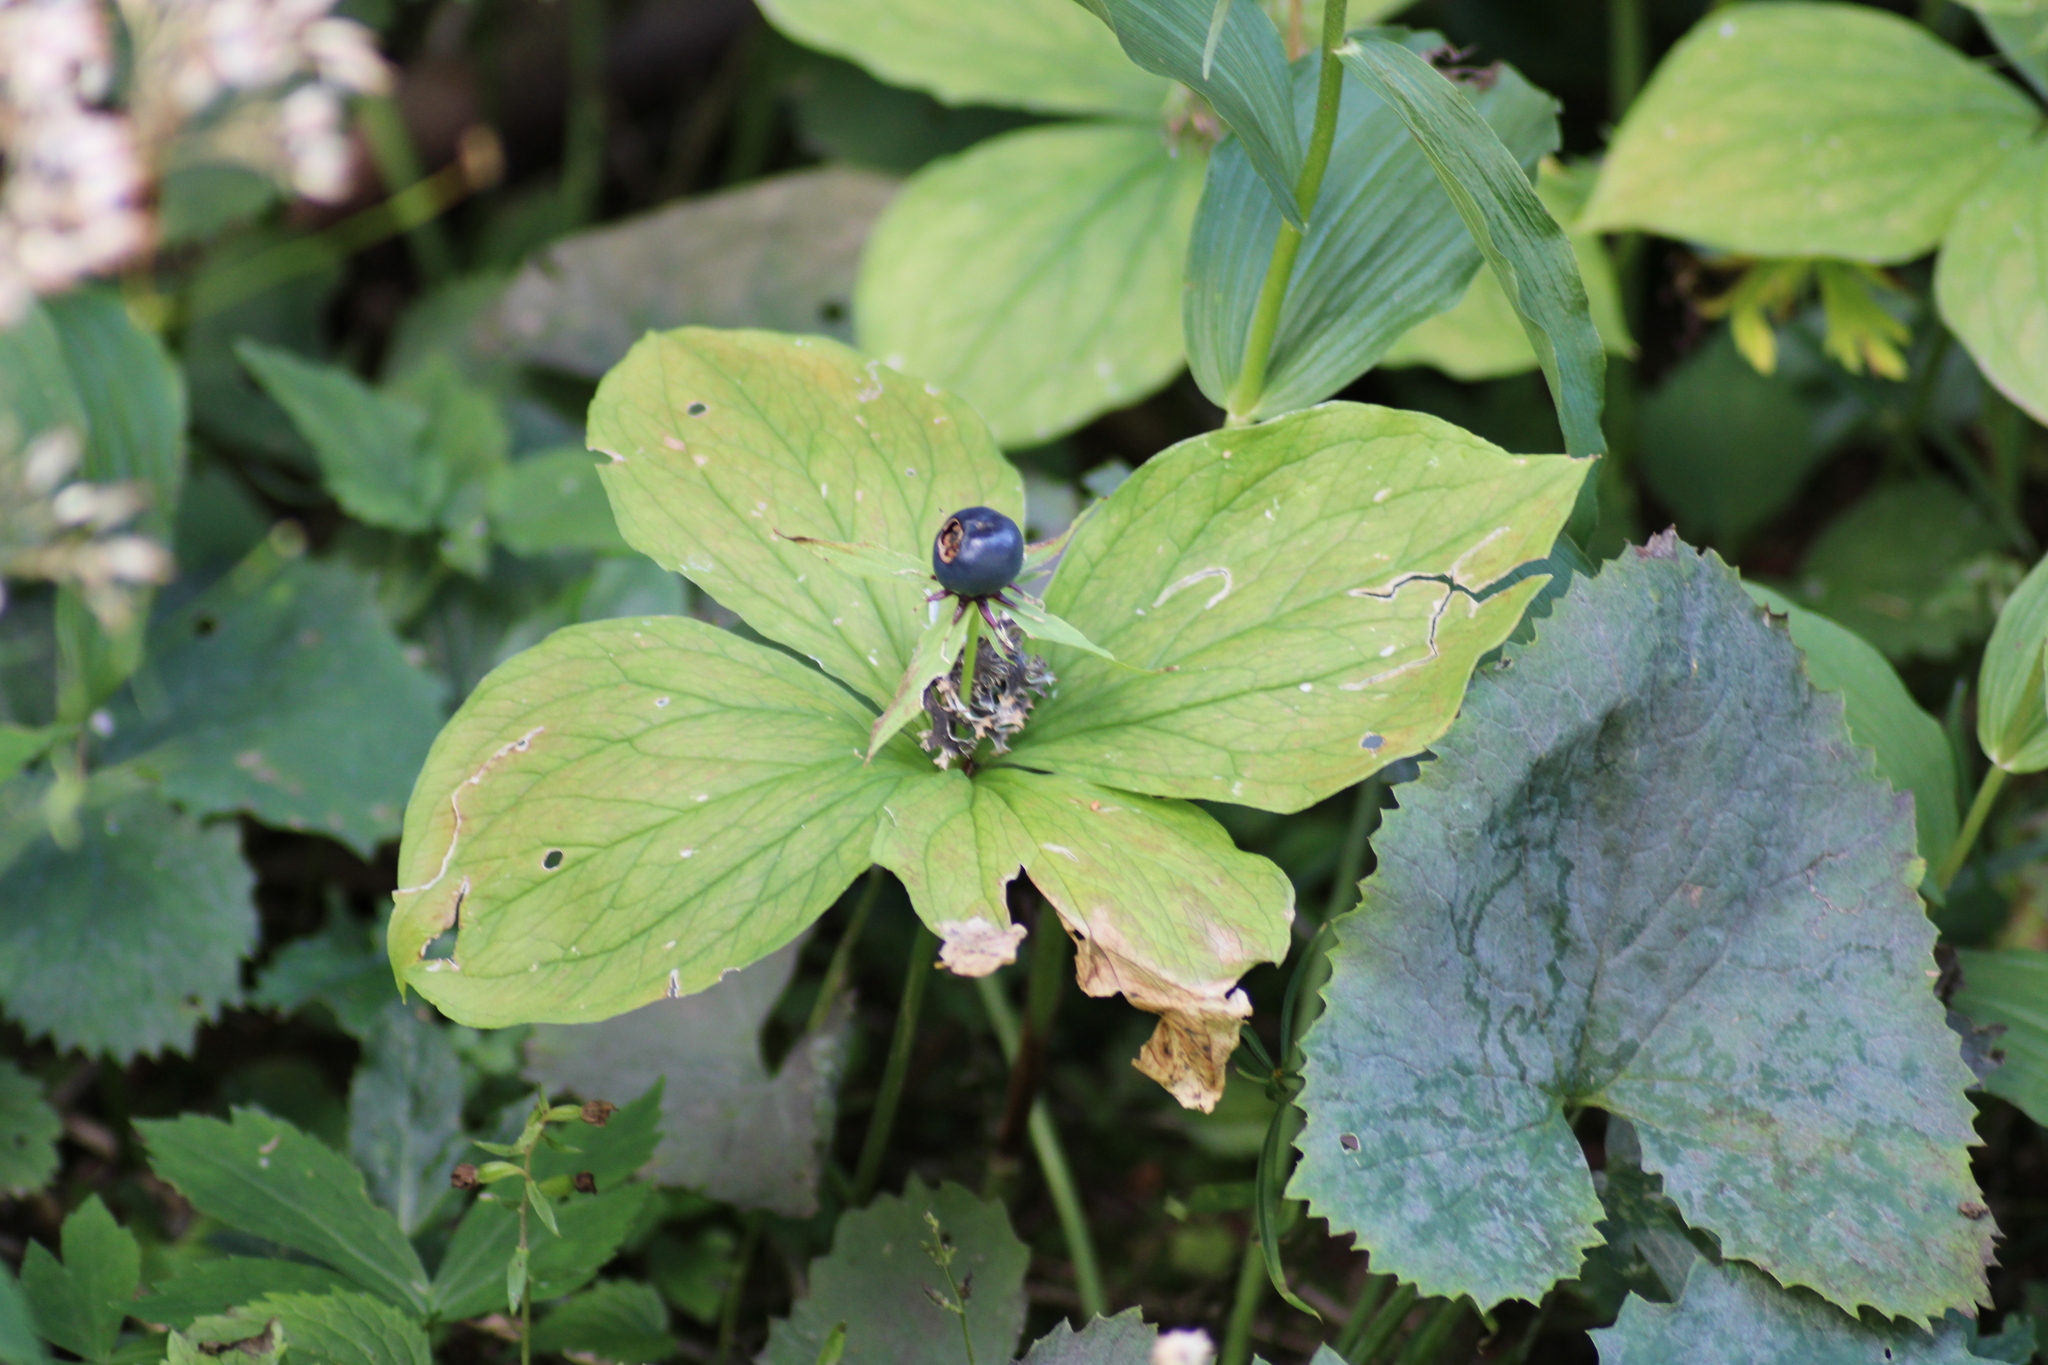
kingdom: Plantae
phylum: Tracheophyta
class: Liliopsida
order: Liliales
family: Melanthiaceae
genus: Paris
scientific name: Paris quadrifolia
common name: Herb-paris
